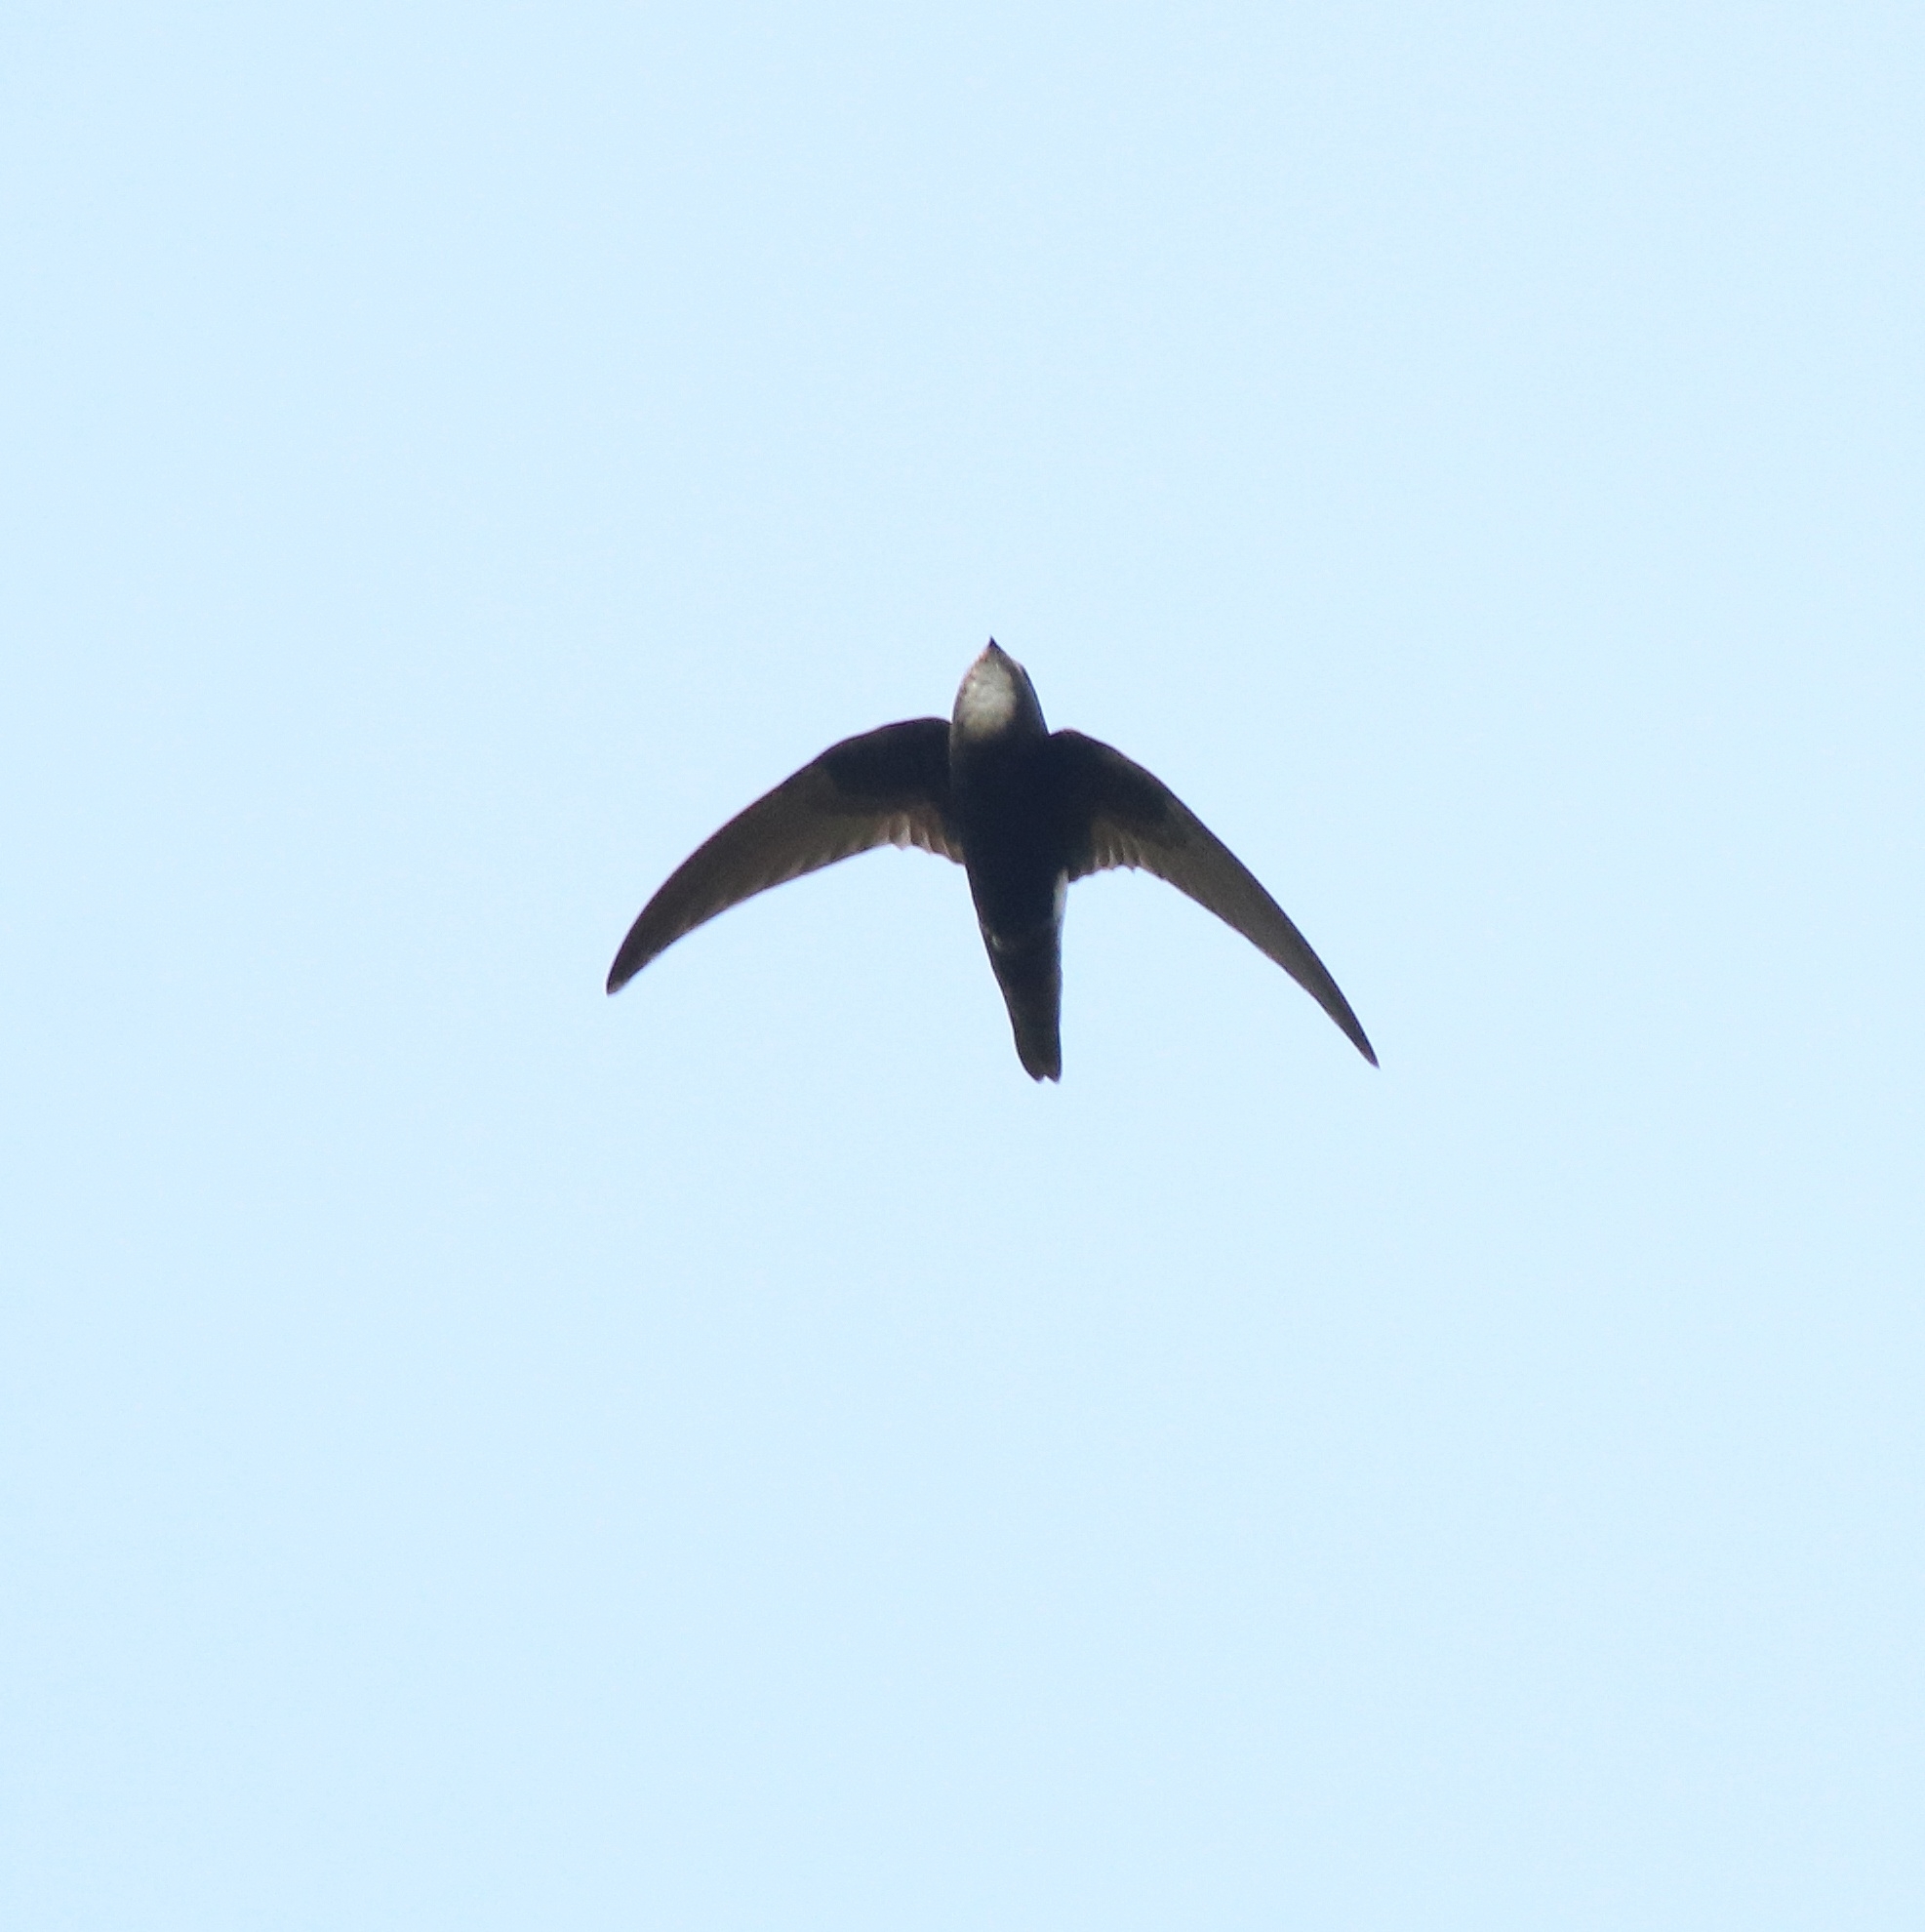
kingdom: Animalia
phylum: Chordata
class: Aves
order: Apodiformes
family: Apodidae
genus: Apus
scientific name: Apus affinis
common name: Little swift
